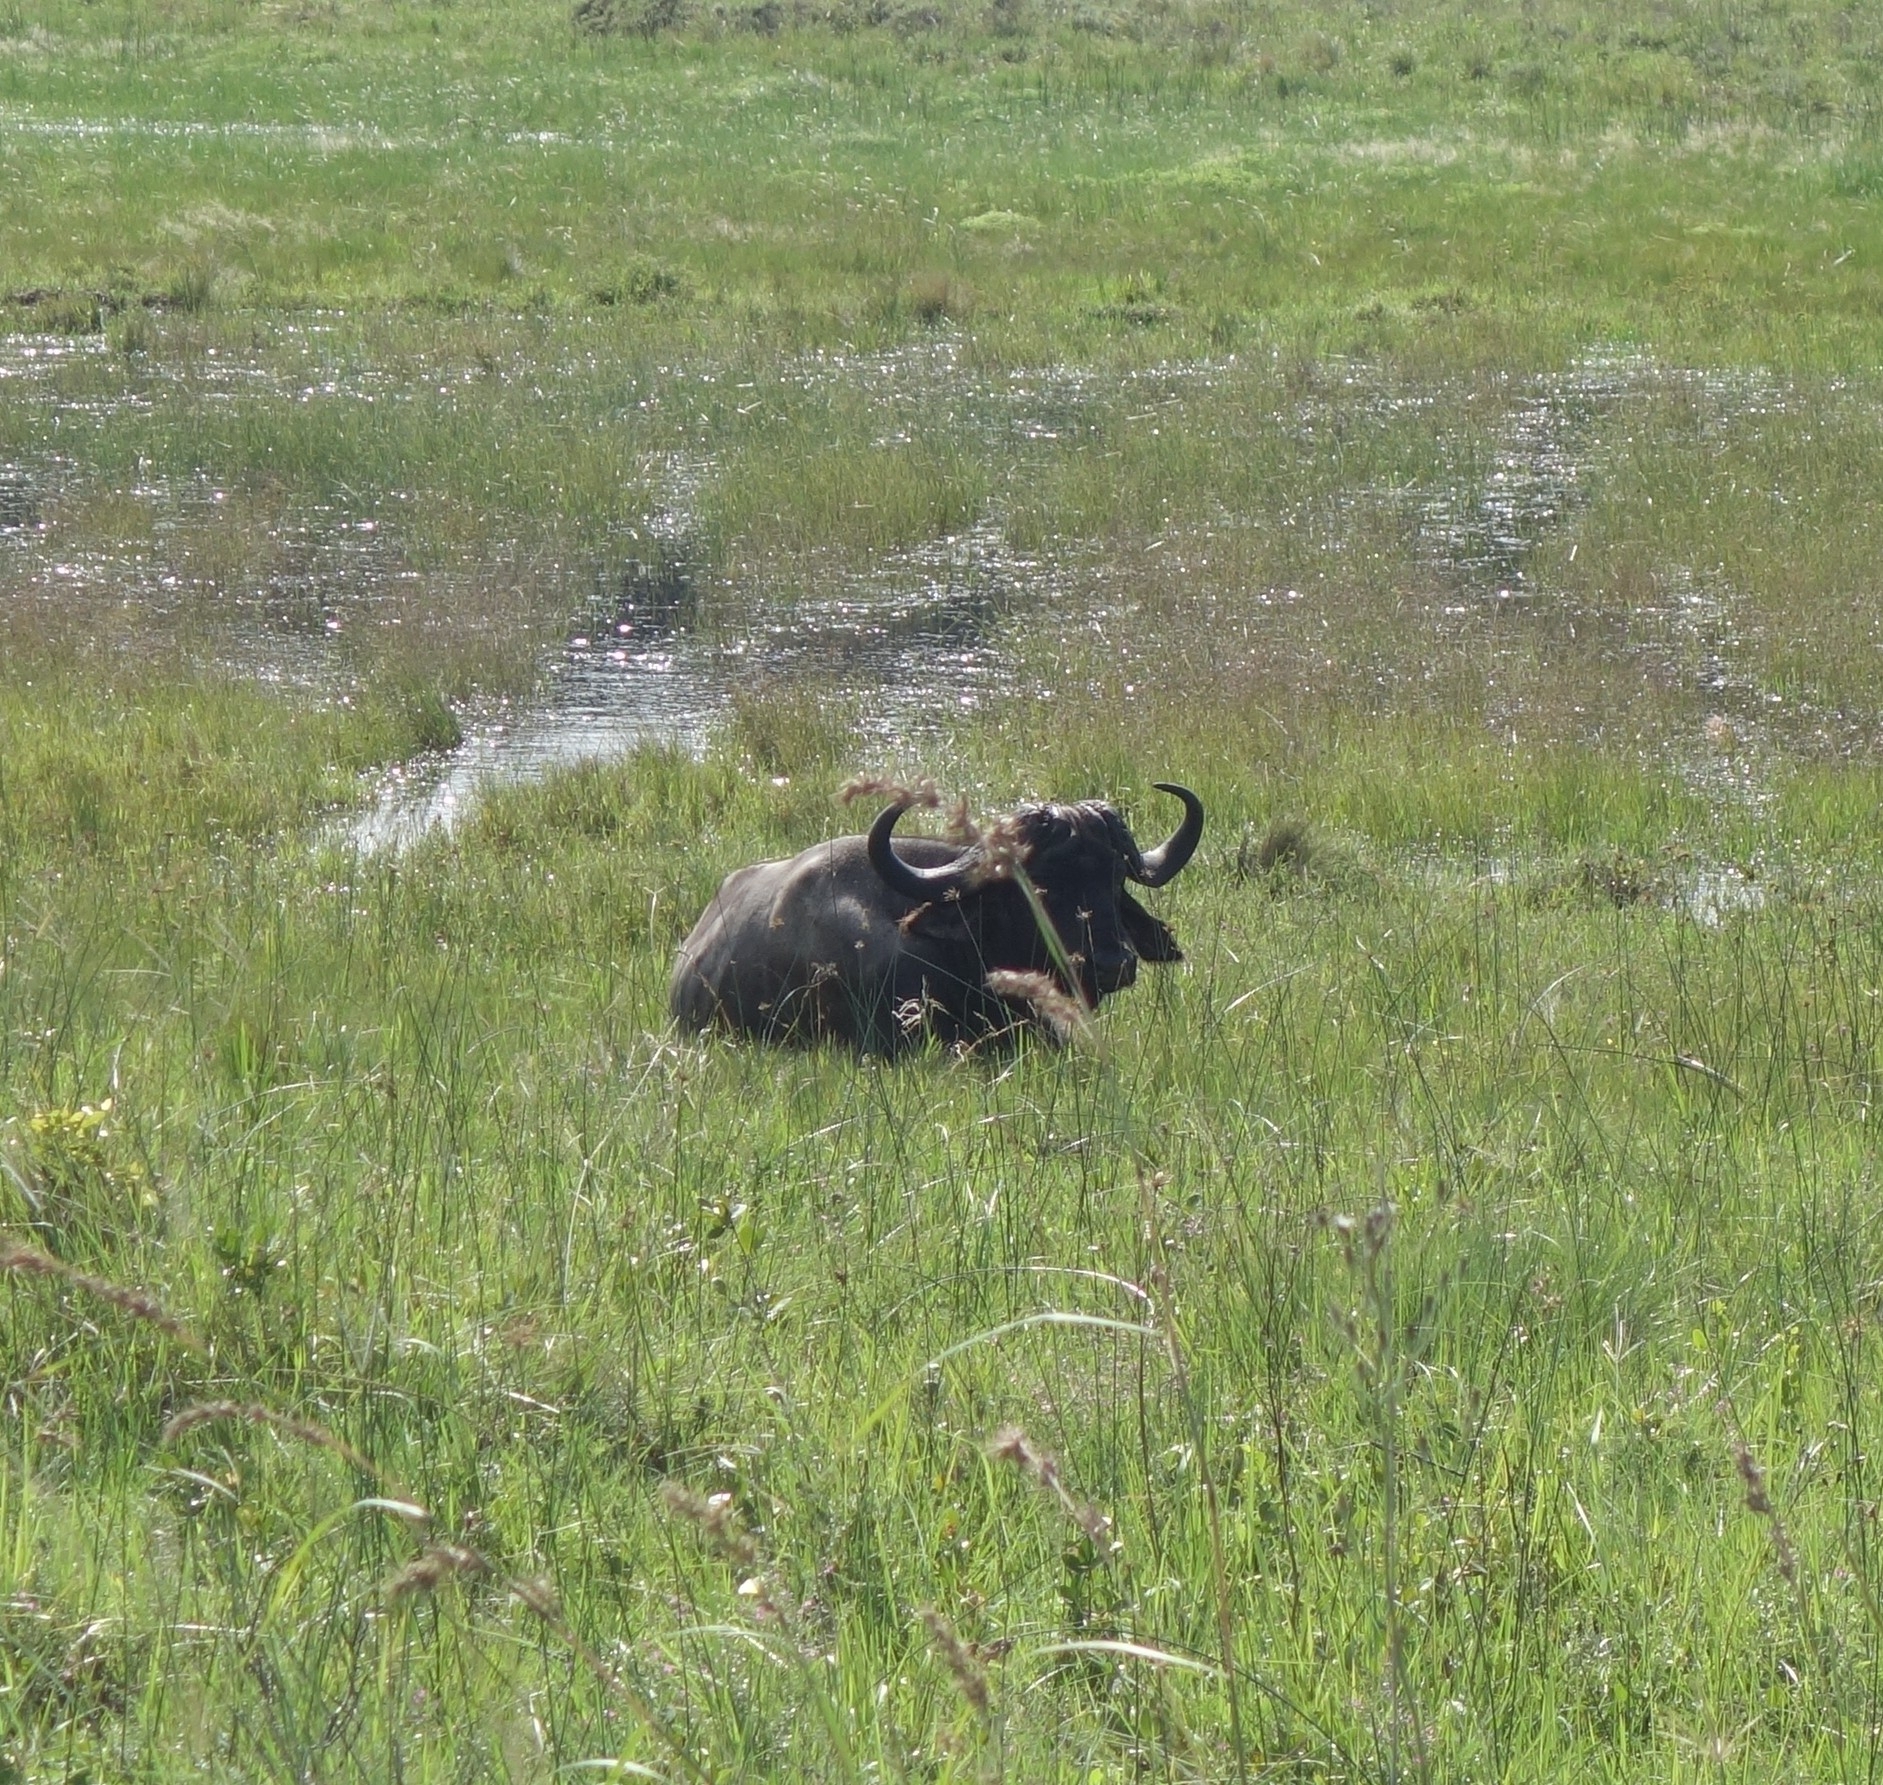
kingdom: Animalia
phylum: Chordata
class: Mammalia
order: Artiodactyla
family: Bovidae
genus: Syncerus
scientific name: Syncerus caffer
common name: African buffalo
